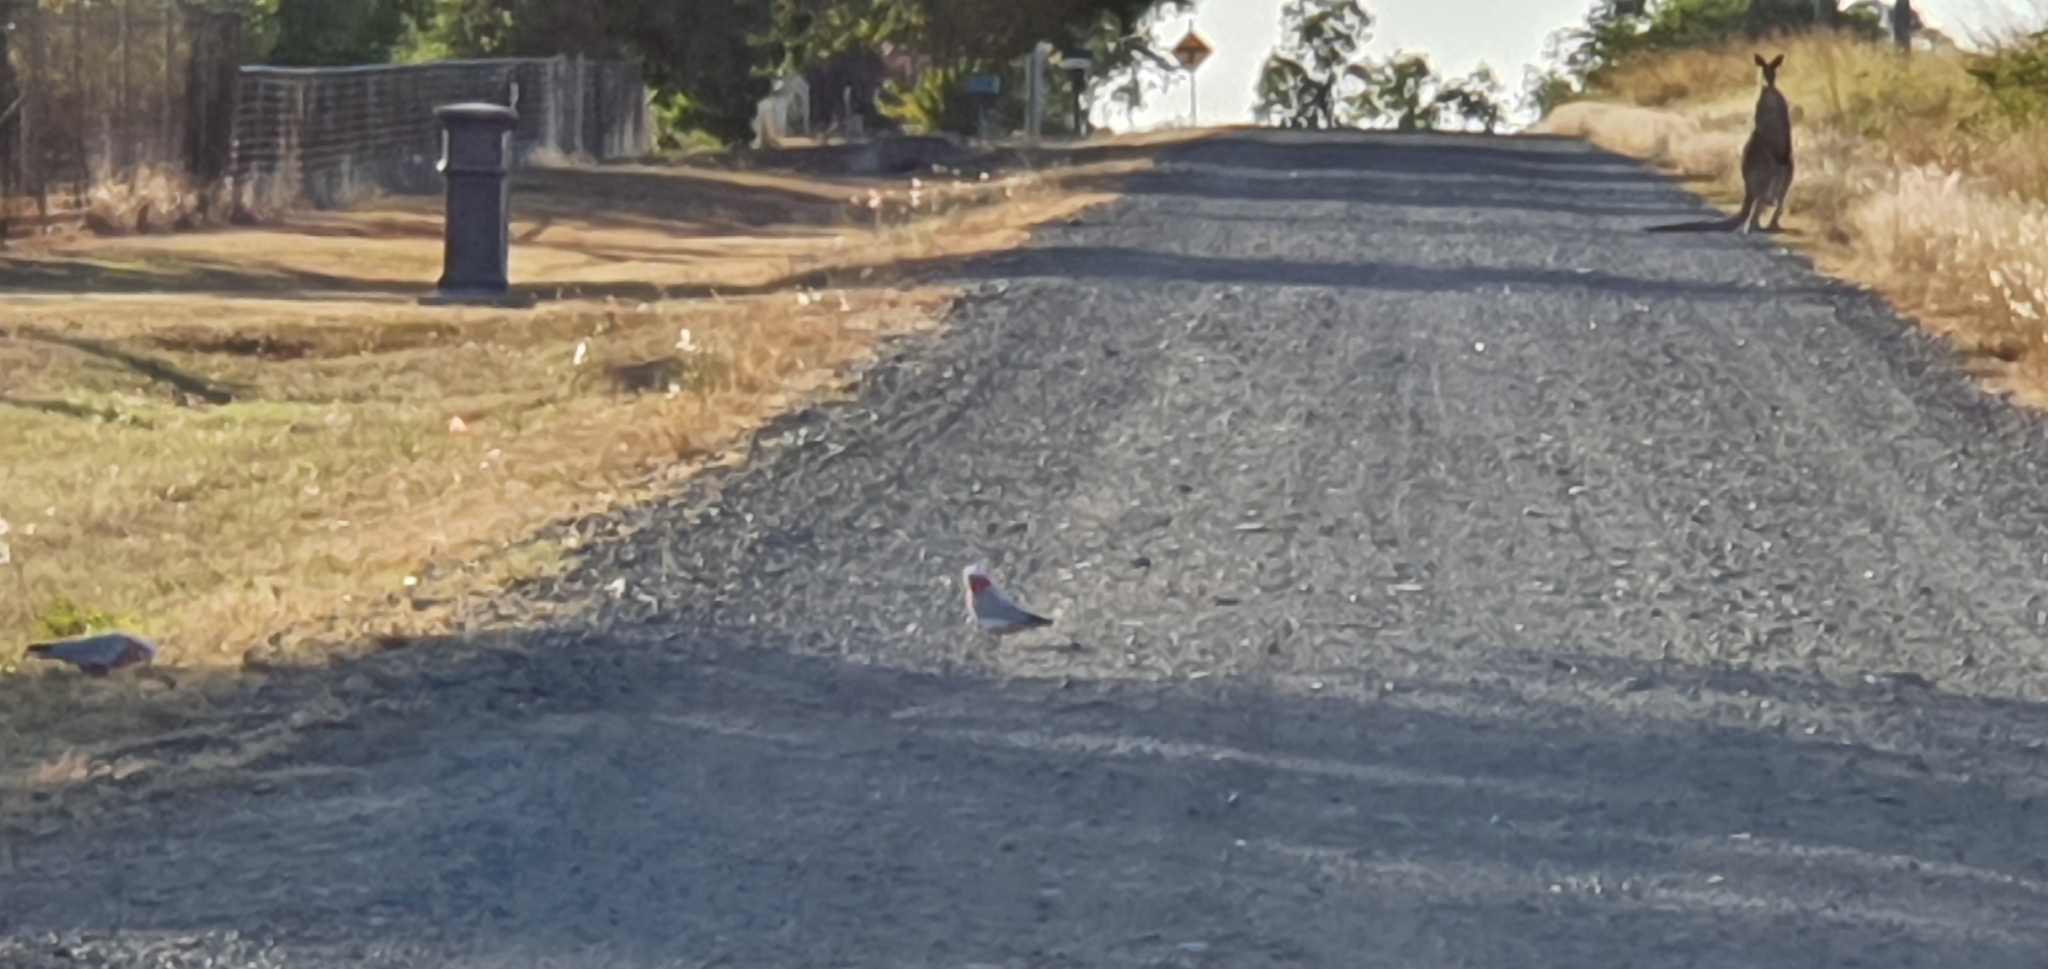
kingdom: Animalia
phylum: Chordata
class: Aves
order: Psittaciformes
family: Psittacidae
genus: Eolophus
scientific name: Eolophus roseicapilla
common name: Galah
